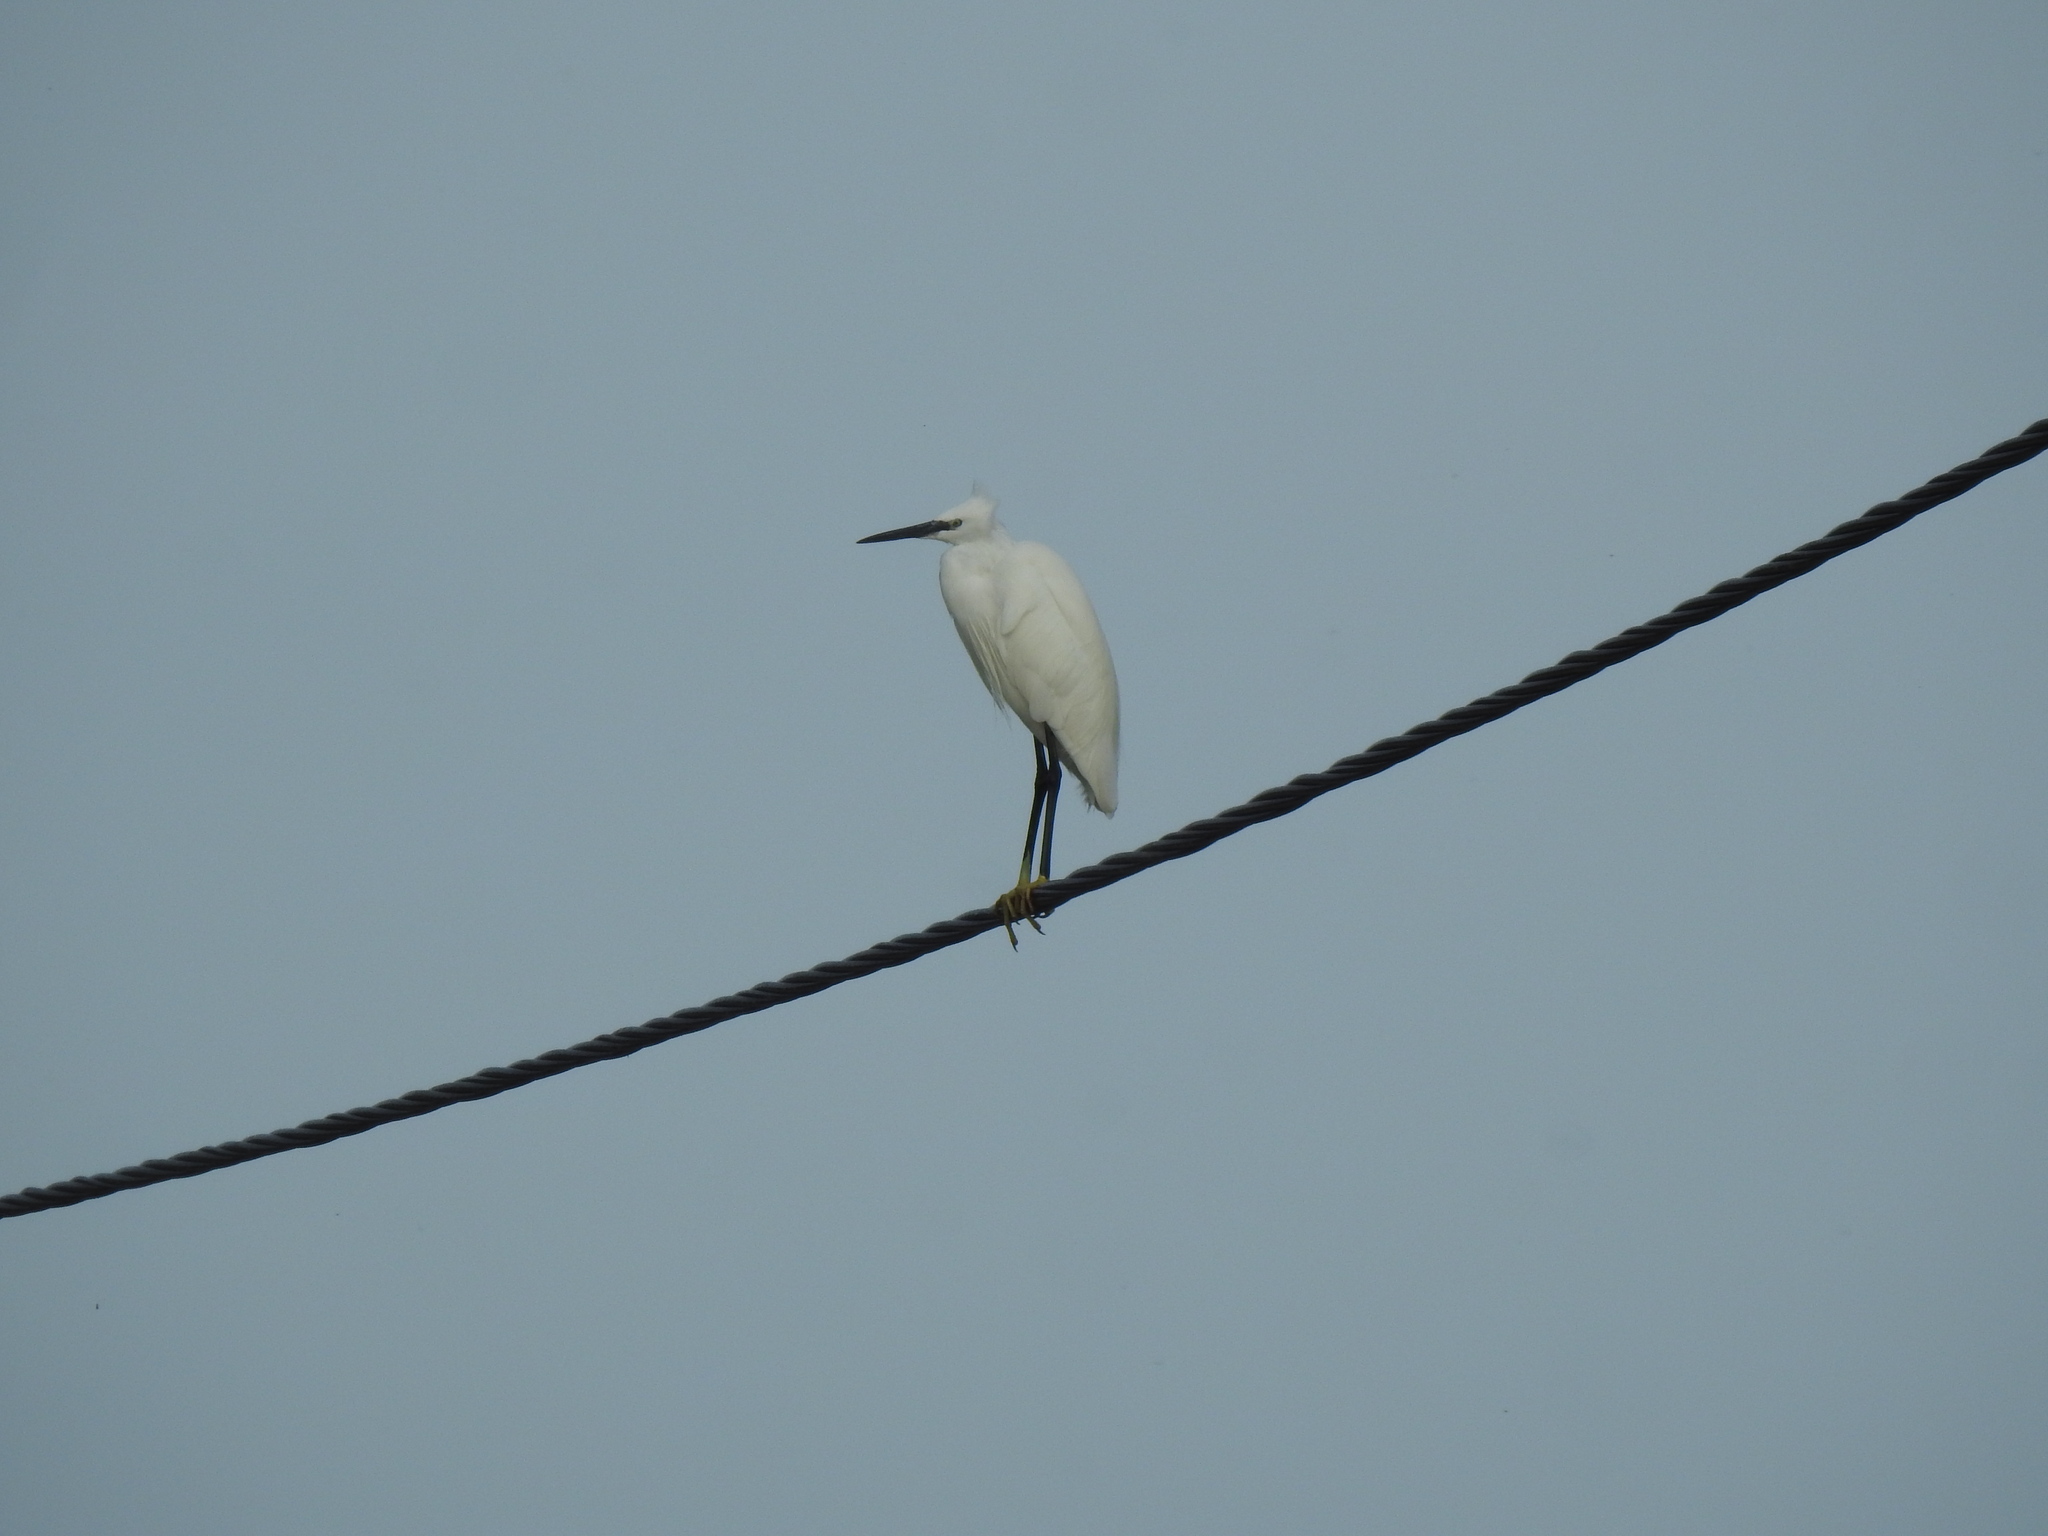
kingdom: Animalia
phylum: Chordata
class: Aves
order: Pelecaniformes
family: Ardeidae
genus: Egretta
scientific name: Egretta garzetta
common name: Little egret
